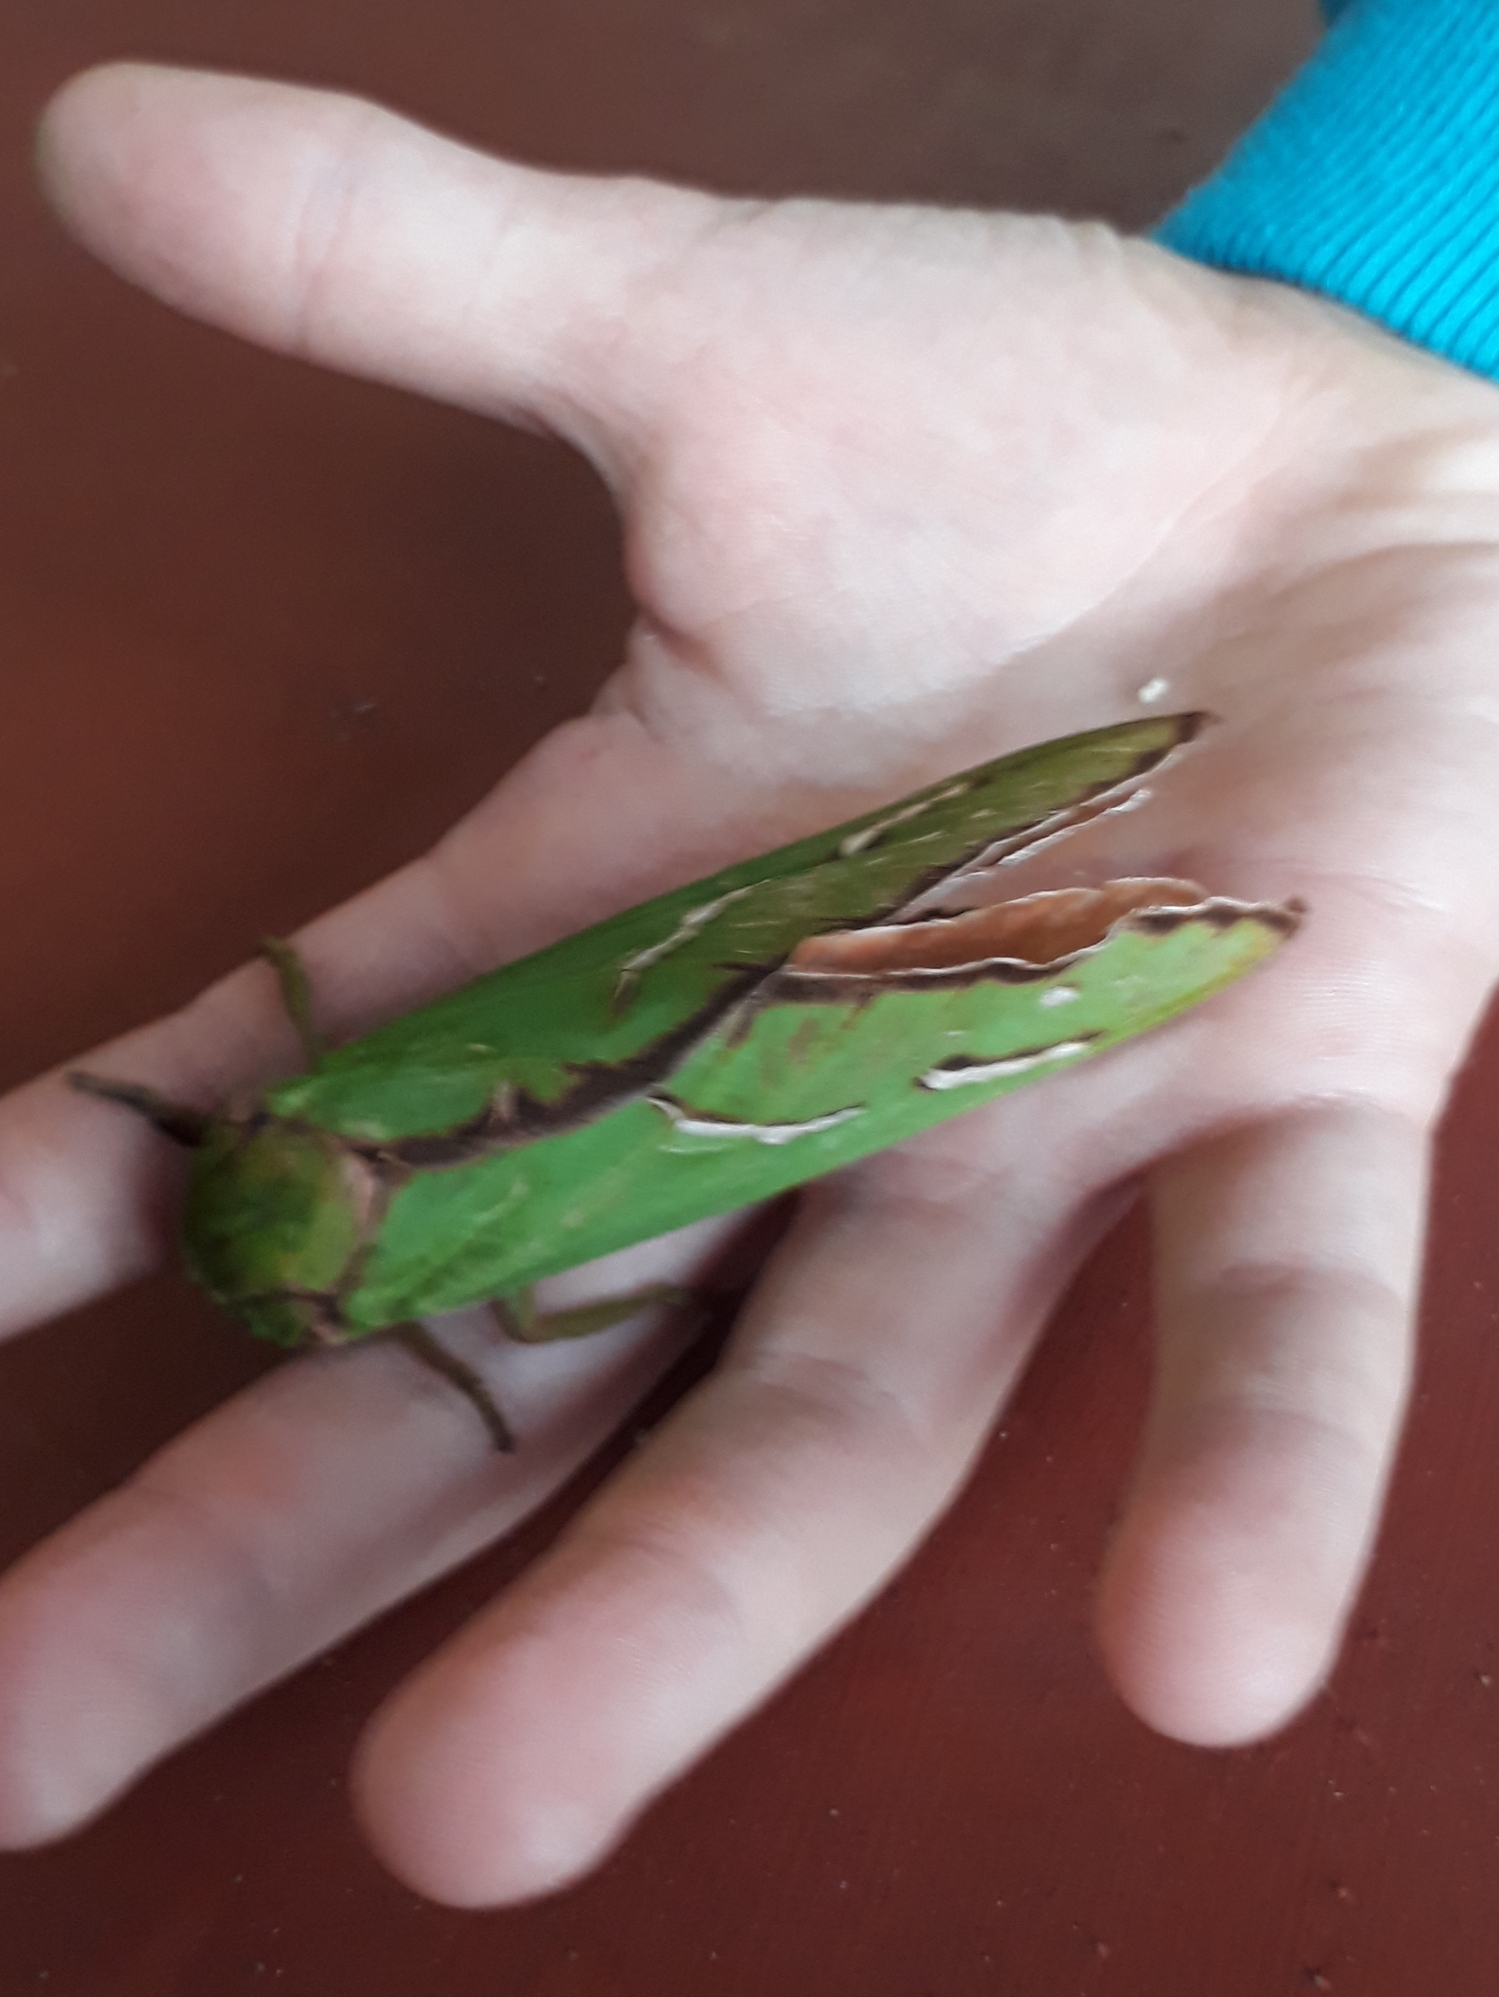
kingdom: Animalia
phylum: Arthropoda
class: Insecta
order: Lepidoptera
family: Hepialidae
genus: Aenetus
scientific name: Aenetus dulcis
